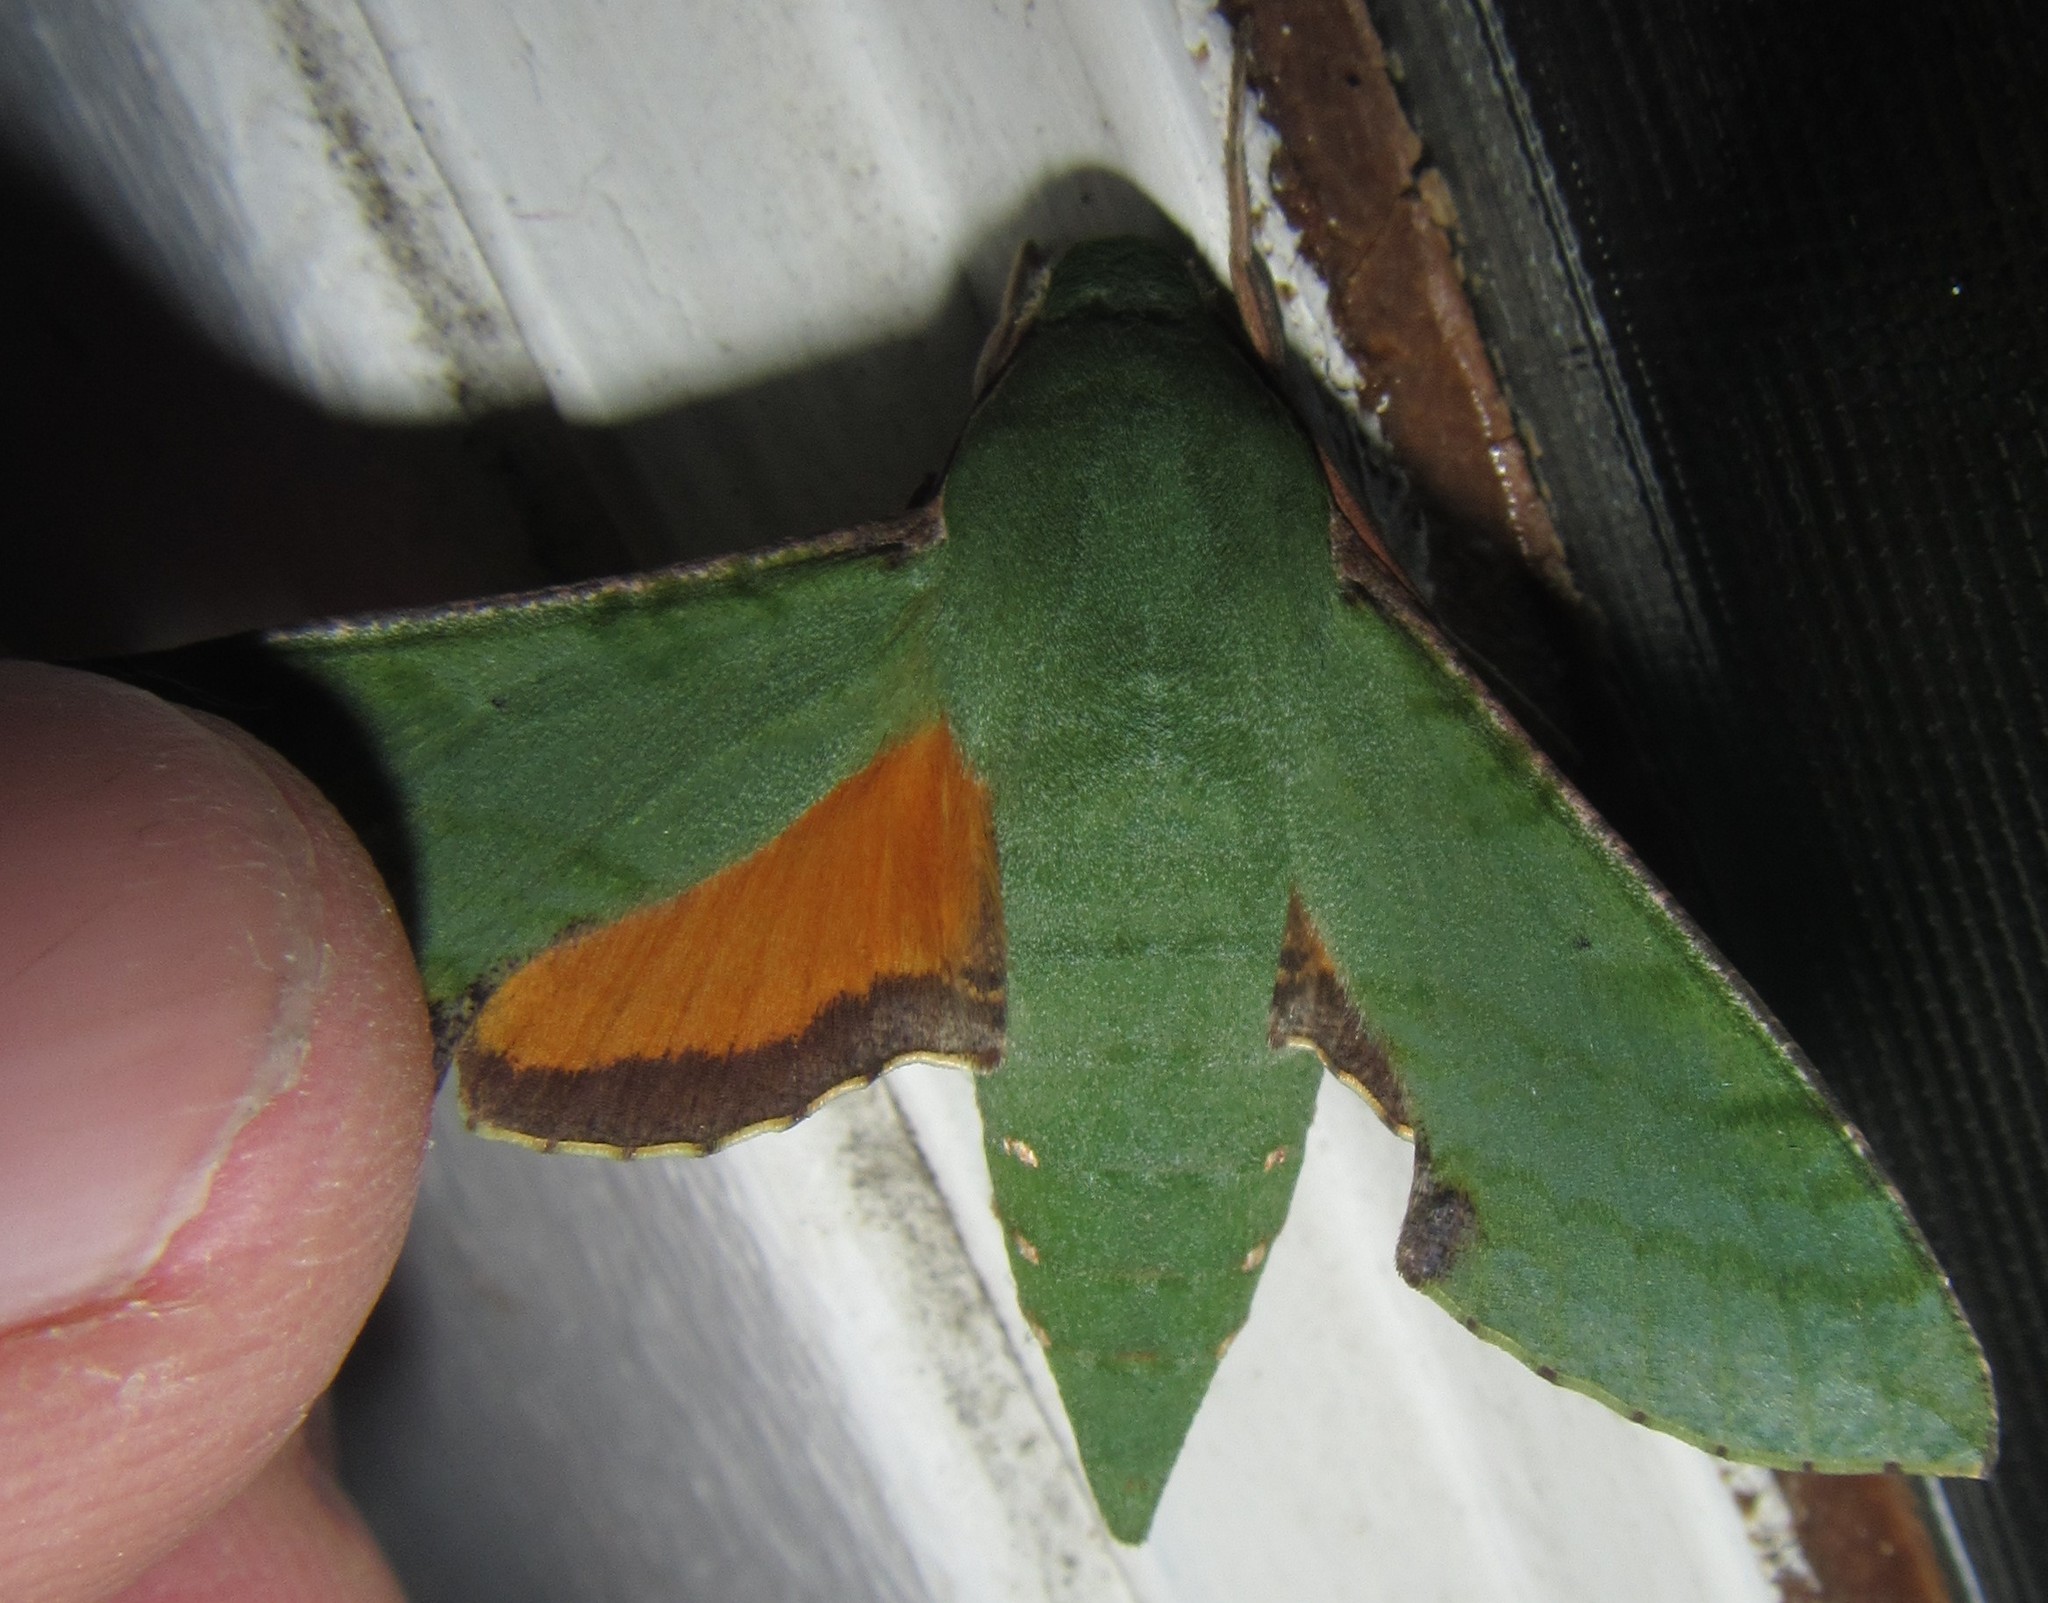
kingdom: Animalia
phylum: Arthropoda
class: Insecta
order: Lepidoptera
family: Sphingidae
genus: Basiothia
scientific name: Basiothia medea
